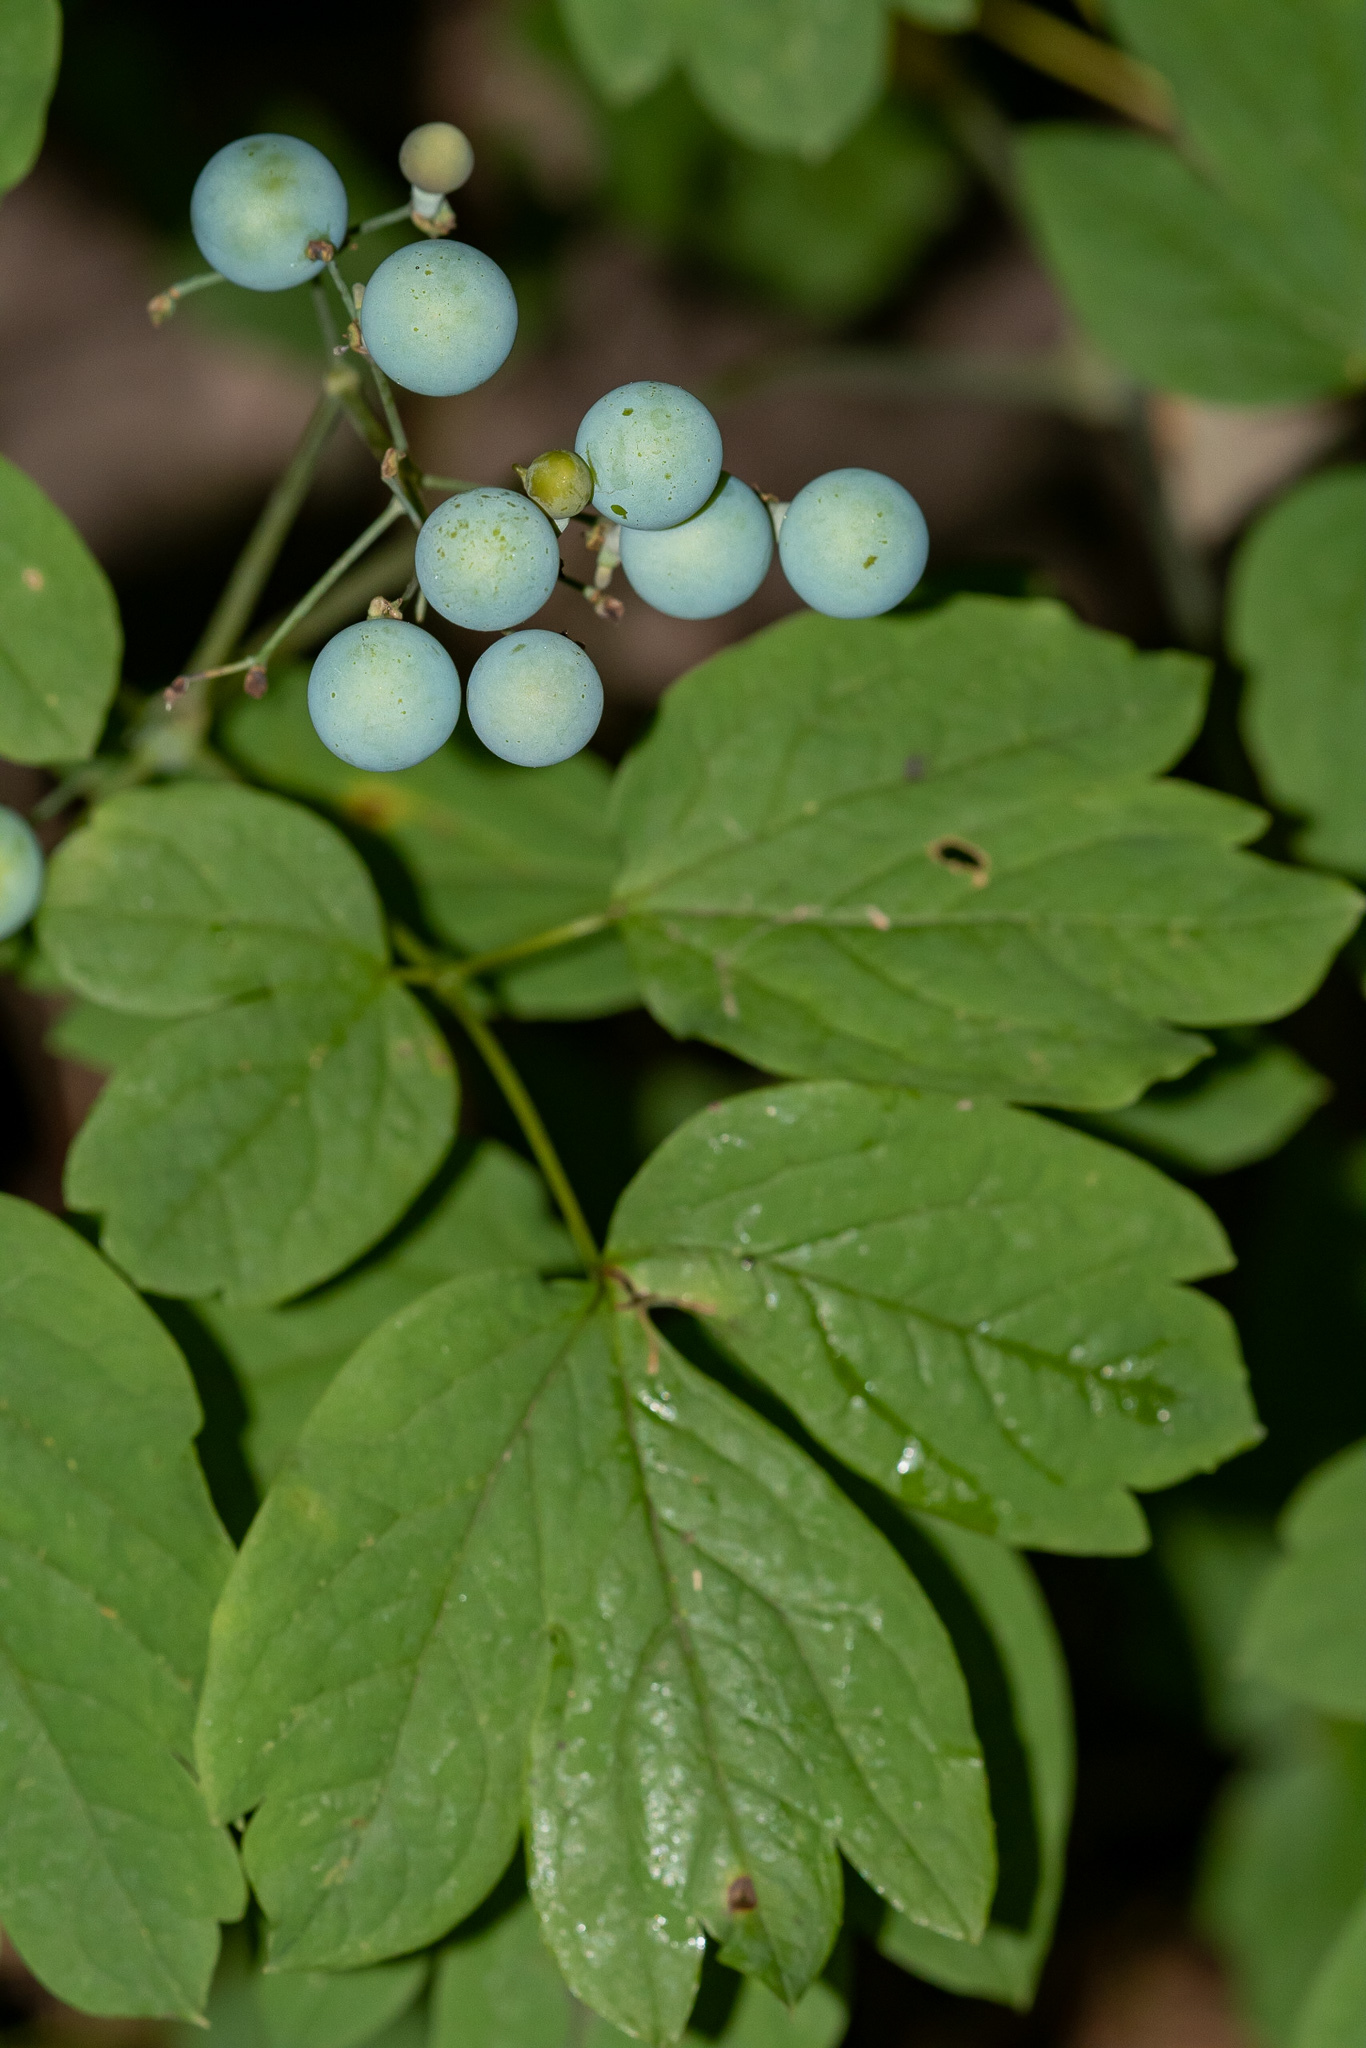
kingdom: Plantae
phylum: Tracheophyta
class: Magnoliopsida
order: Ranunculales
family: Berberidaceae
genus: Caulophyllum
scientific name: Caulophyllum thalictroides
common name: Blue cohosh
